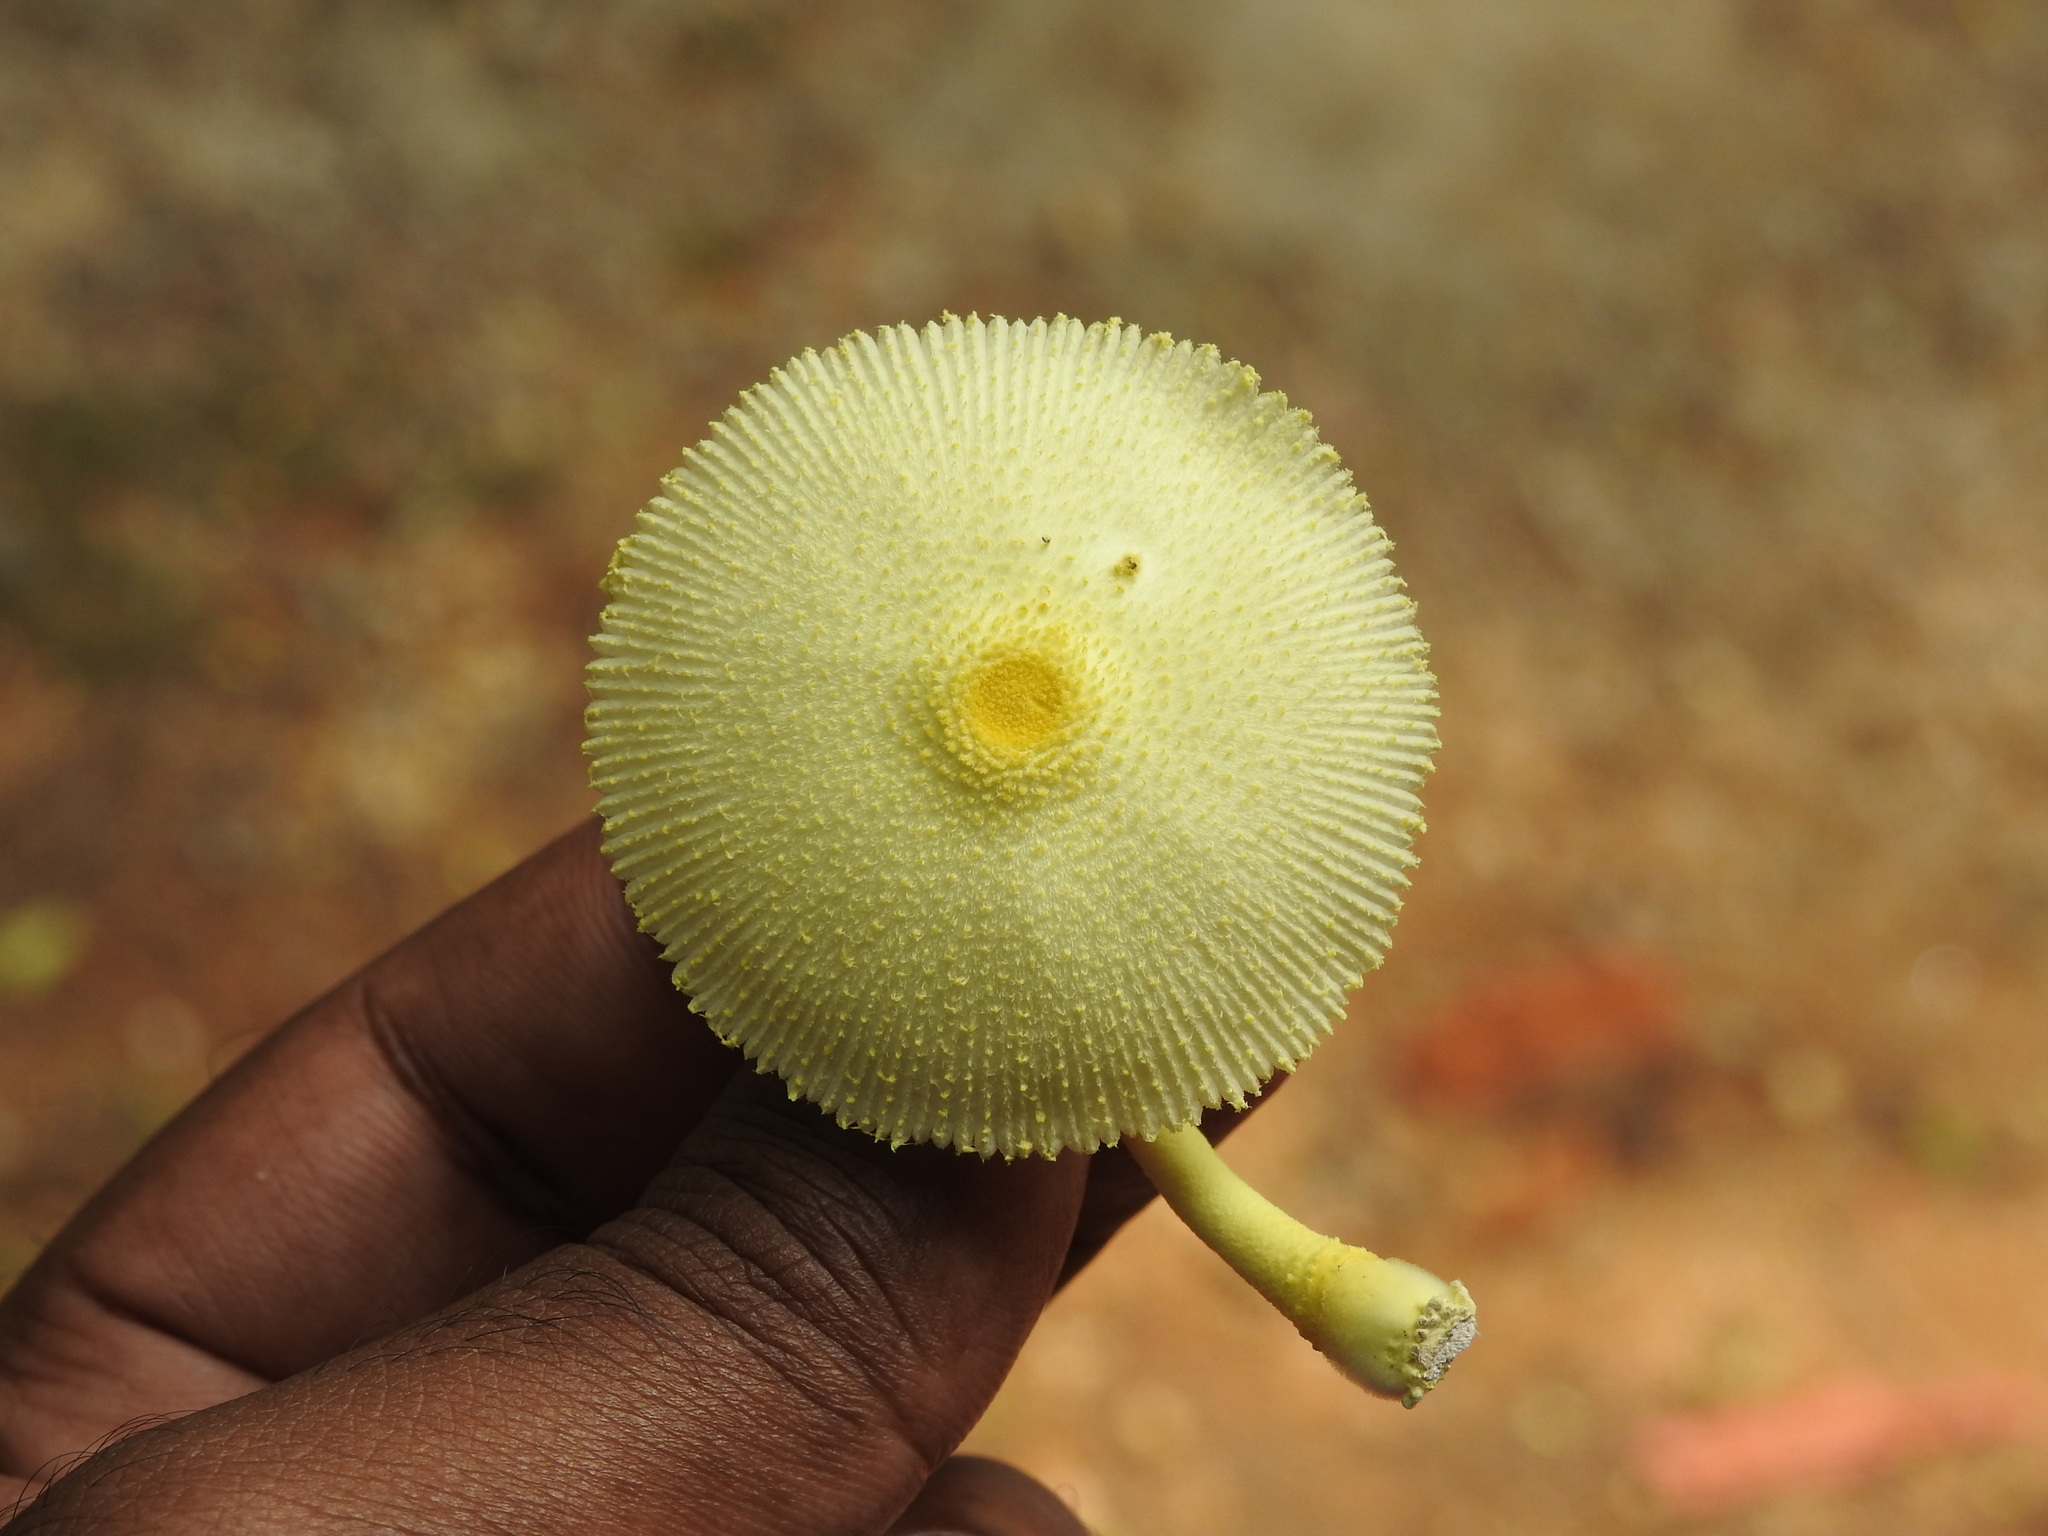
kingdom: Fungi
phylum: Basidiomycota
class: Agaricomycetes
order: Agaricales
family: Agaricaceae
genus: Leucocoprinus
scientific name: Leucocoprinus birnbaumii
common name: Plantpot dapperling
